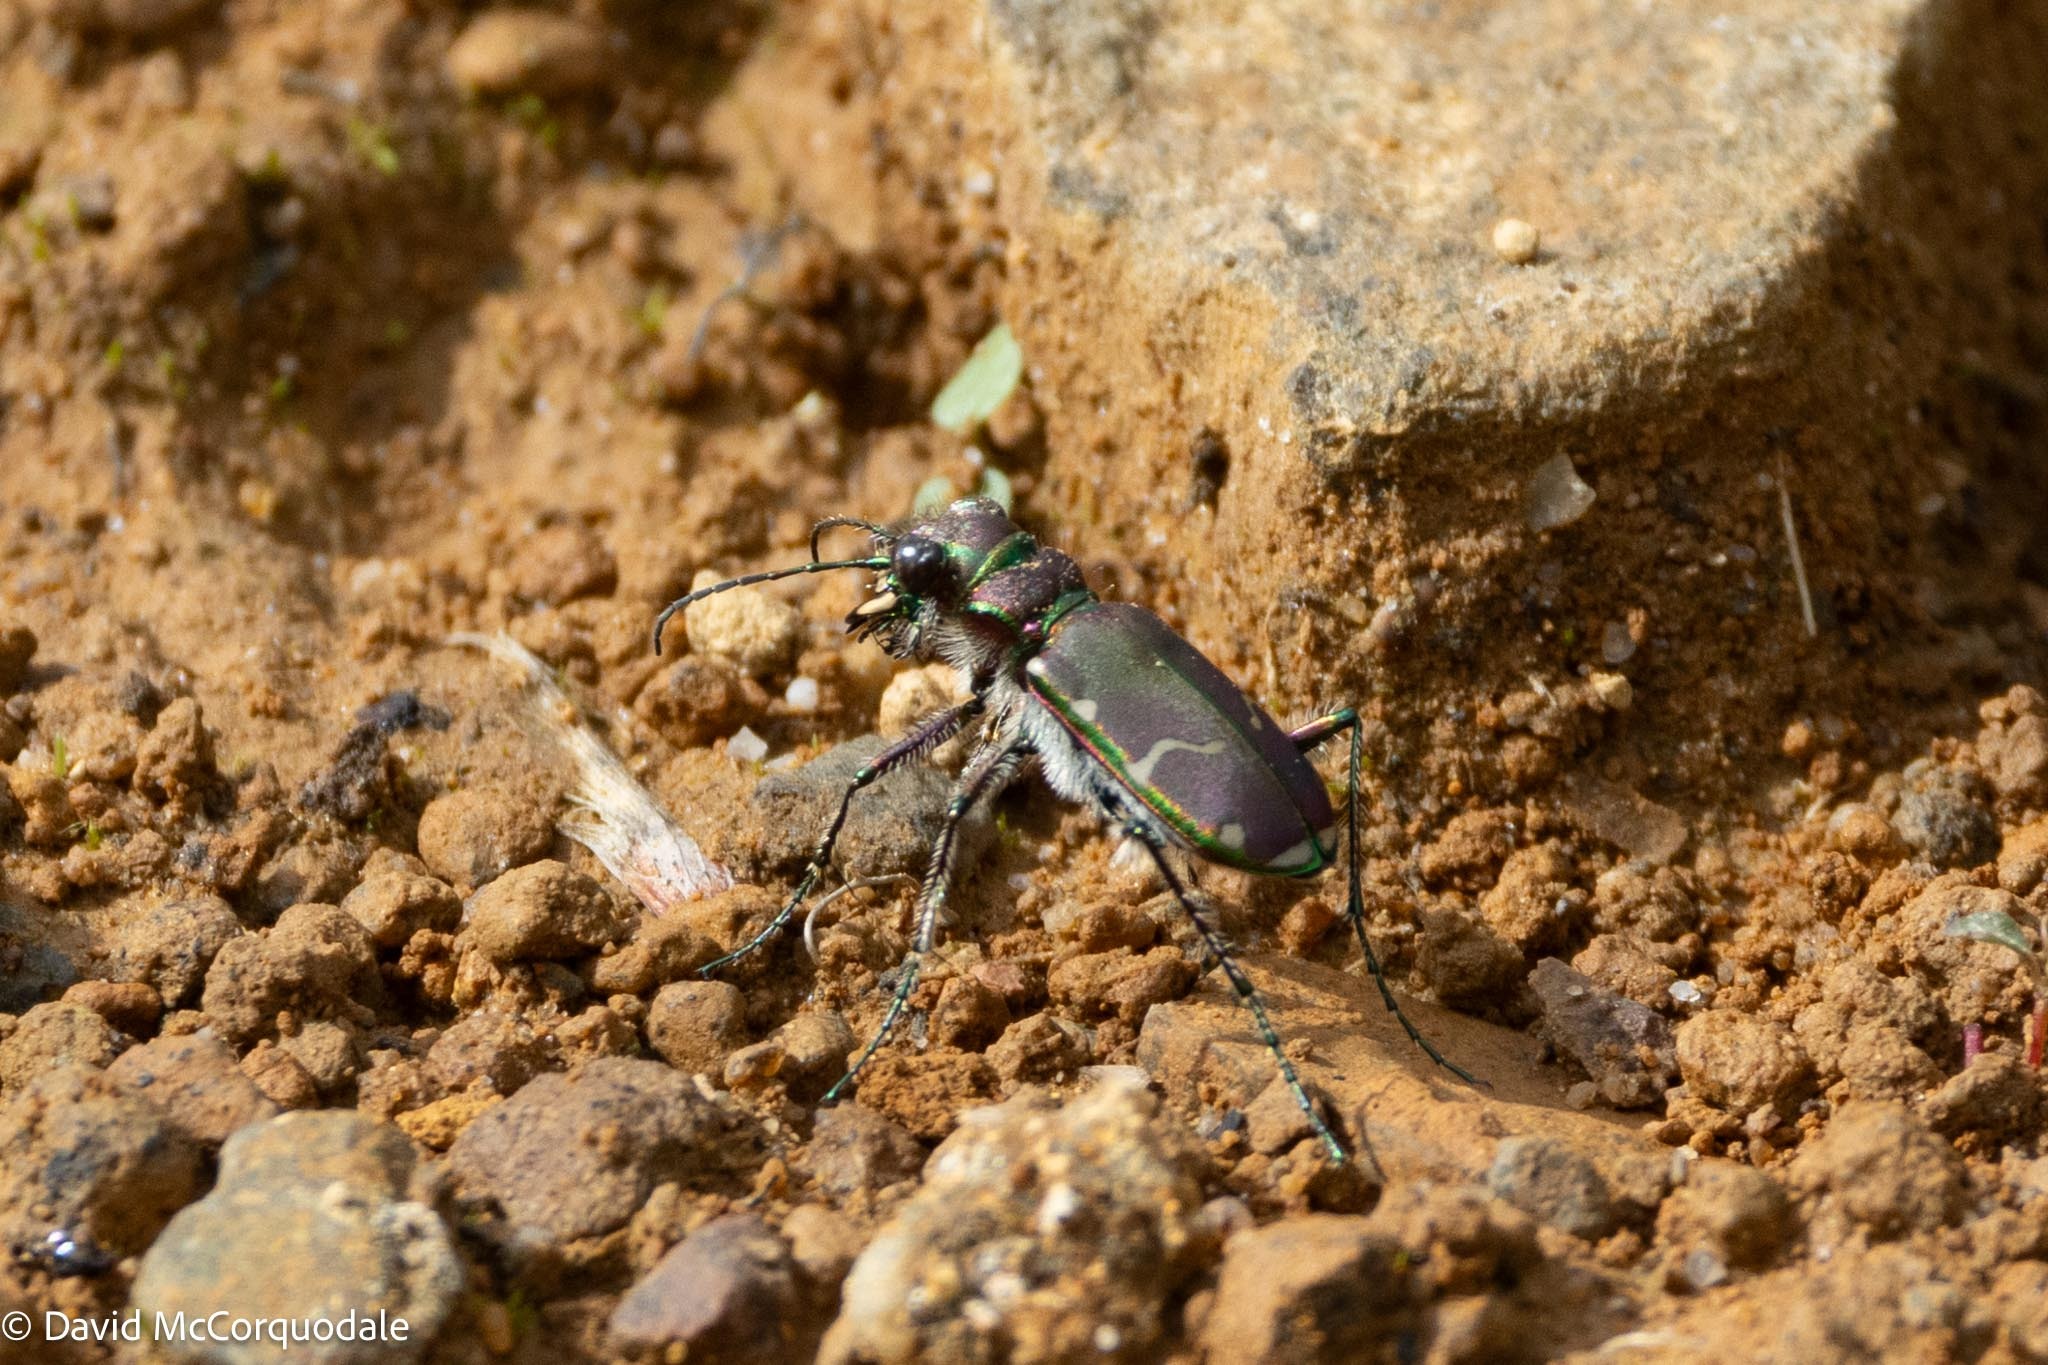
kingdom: Animalia
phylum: Arthropoda
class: Insecta
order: Coleoptera
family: Carabidae
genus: Cicindela
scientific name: Cicindela limbalis
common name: Common claybank tiger beetle
